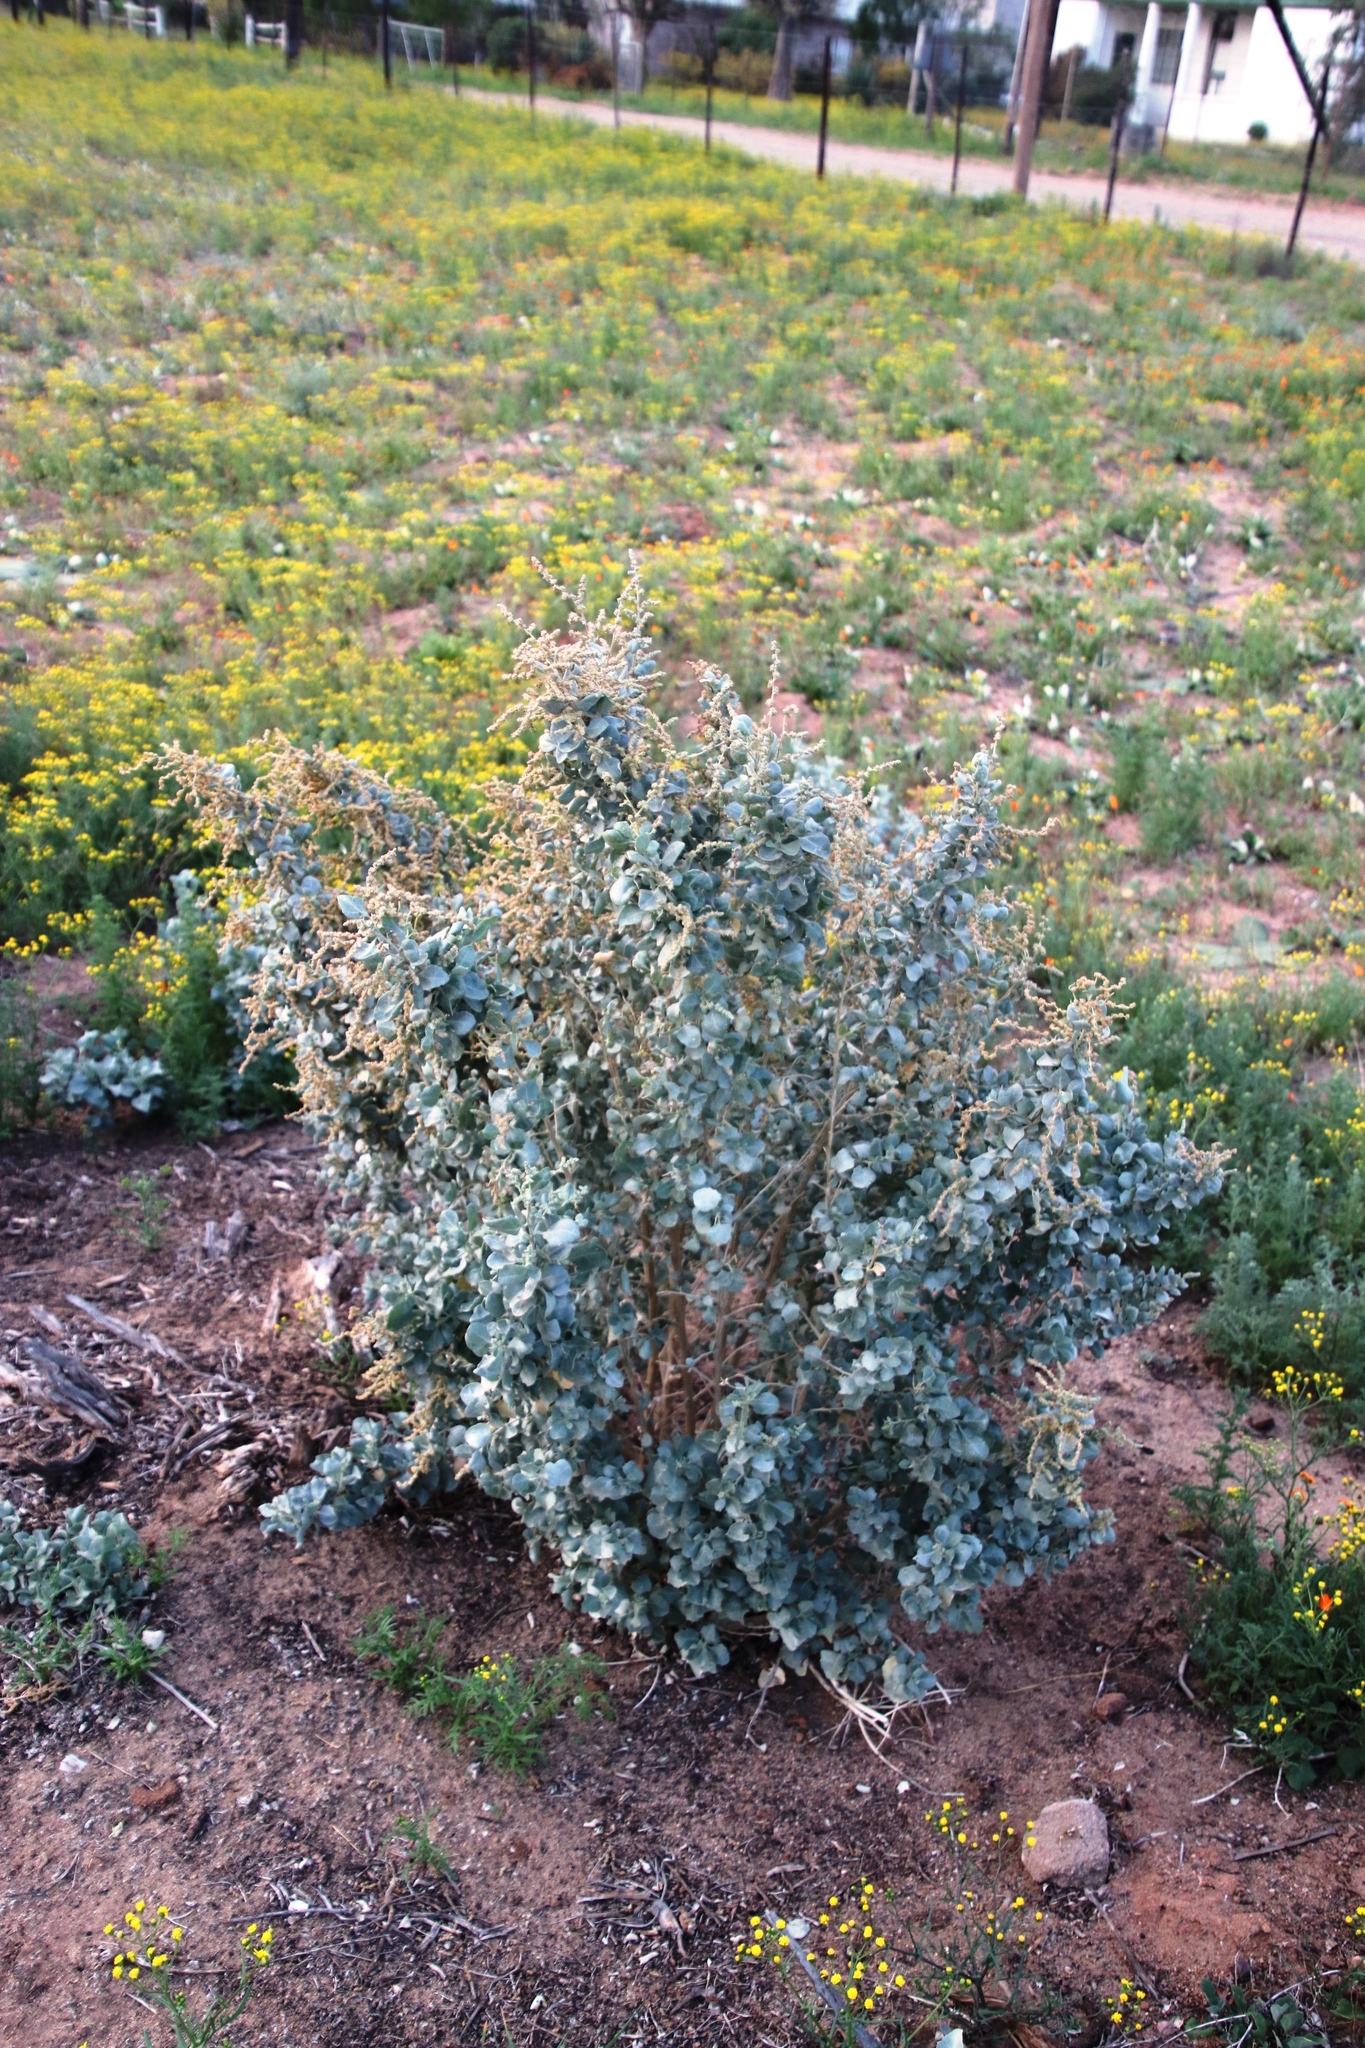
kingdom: Plantae
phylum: Tracheophyta
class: Magnoliopsida
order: Caryophyllales
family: Amaranthaceae
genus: Atriplex
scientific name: Atriplex nummularia
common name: Bluegreen saltbush
